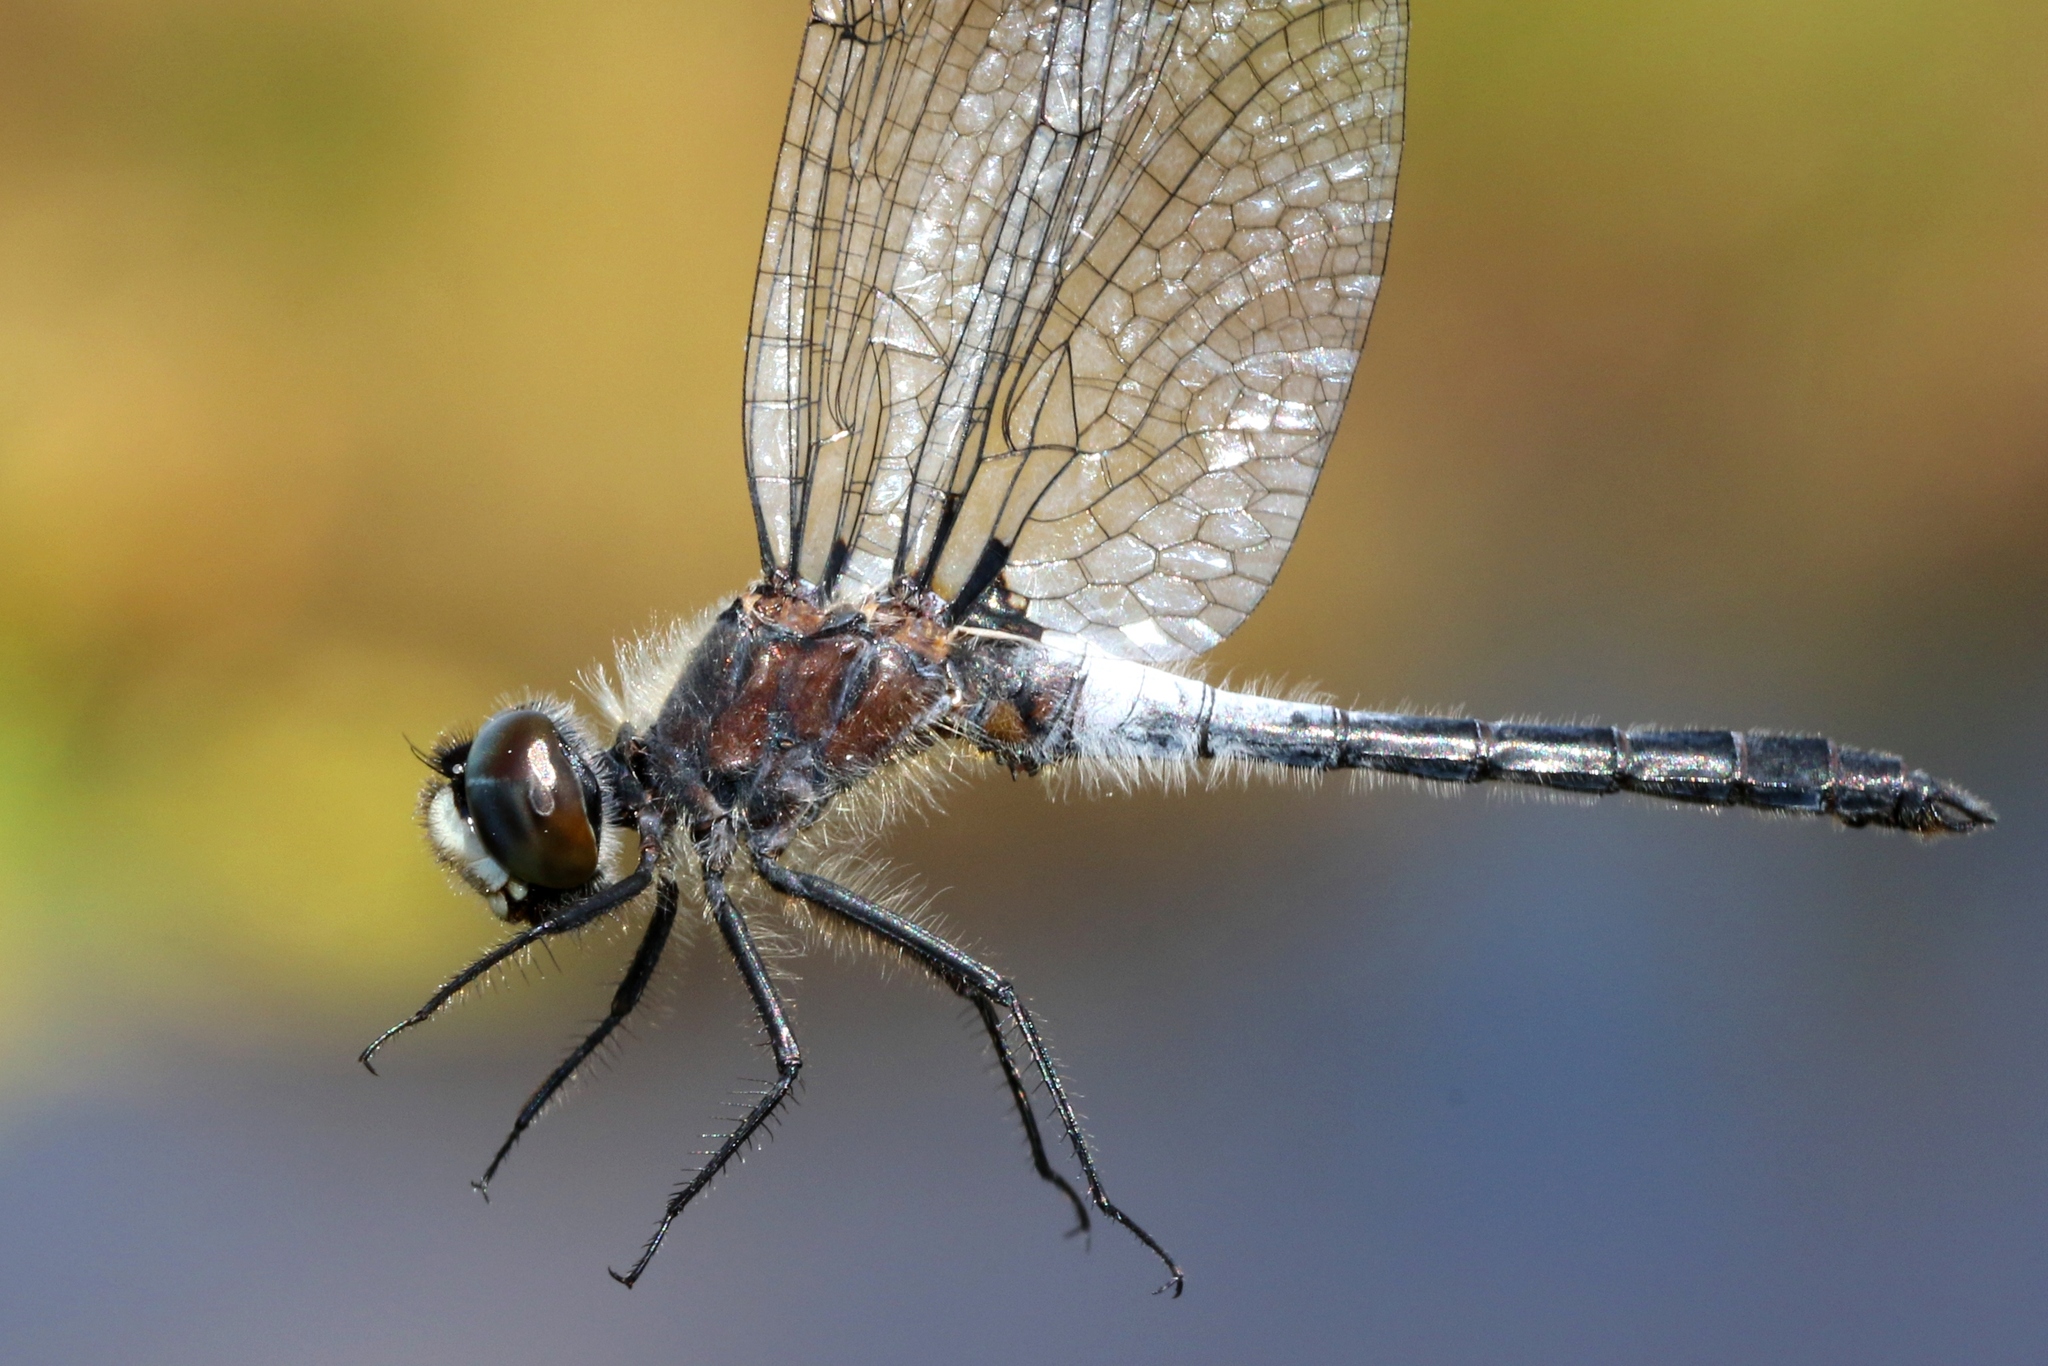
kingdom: Animalia
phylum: Arthropoda
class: Insecta
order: Odonata
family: Libellulidae
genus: Leucorrhinia
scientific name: Leucorrhinia frigida
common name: Frosted whiteface
